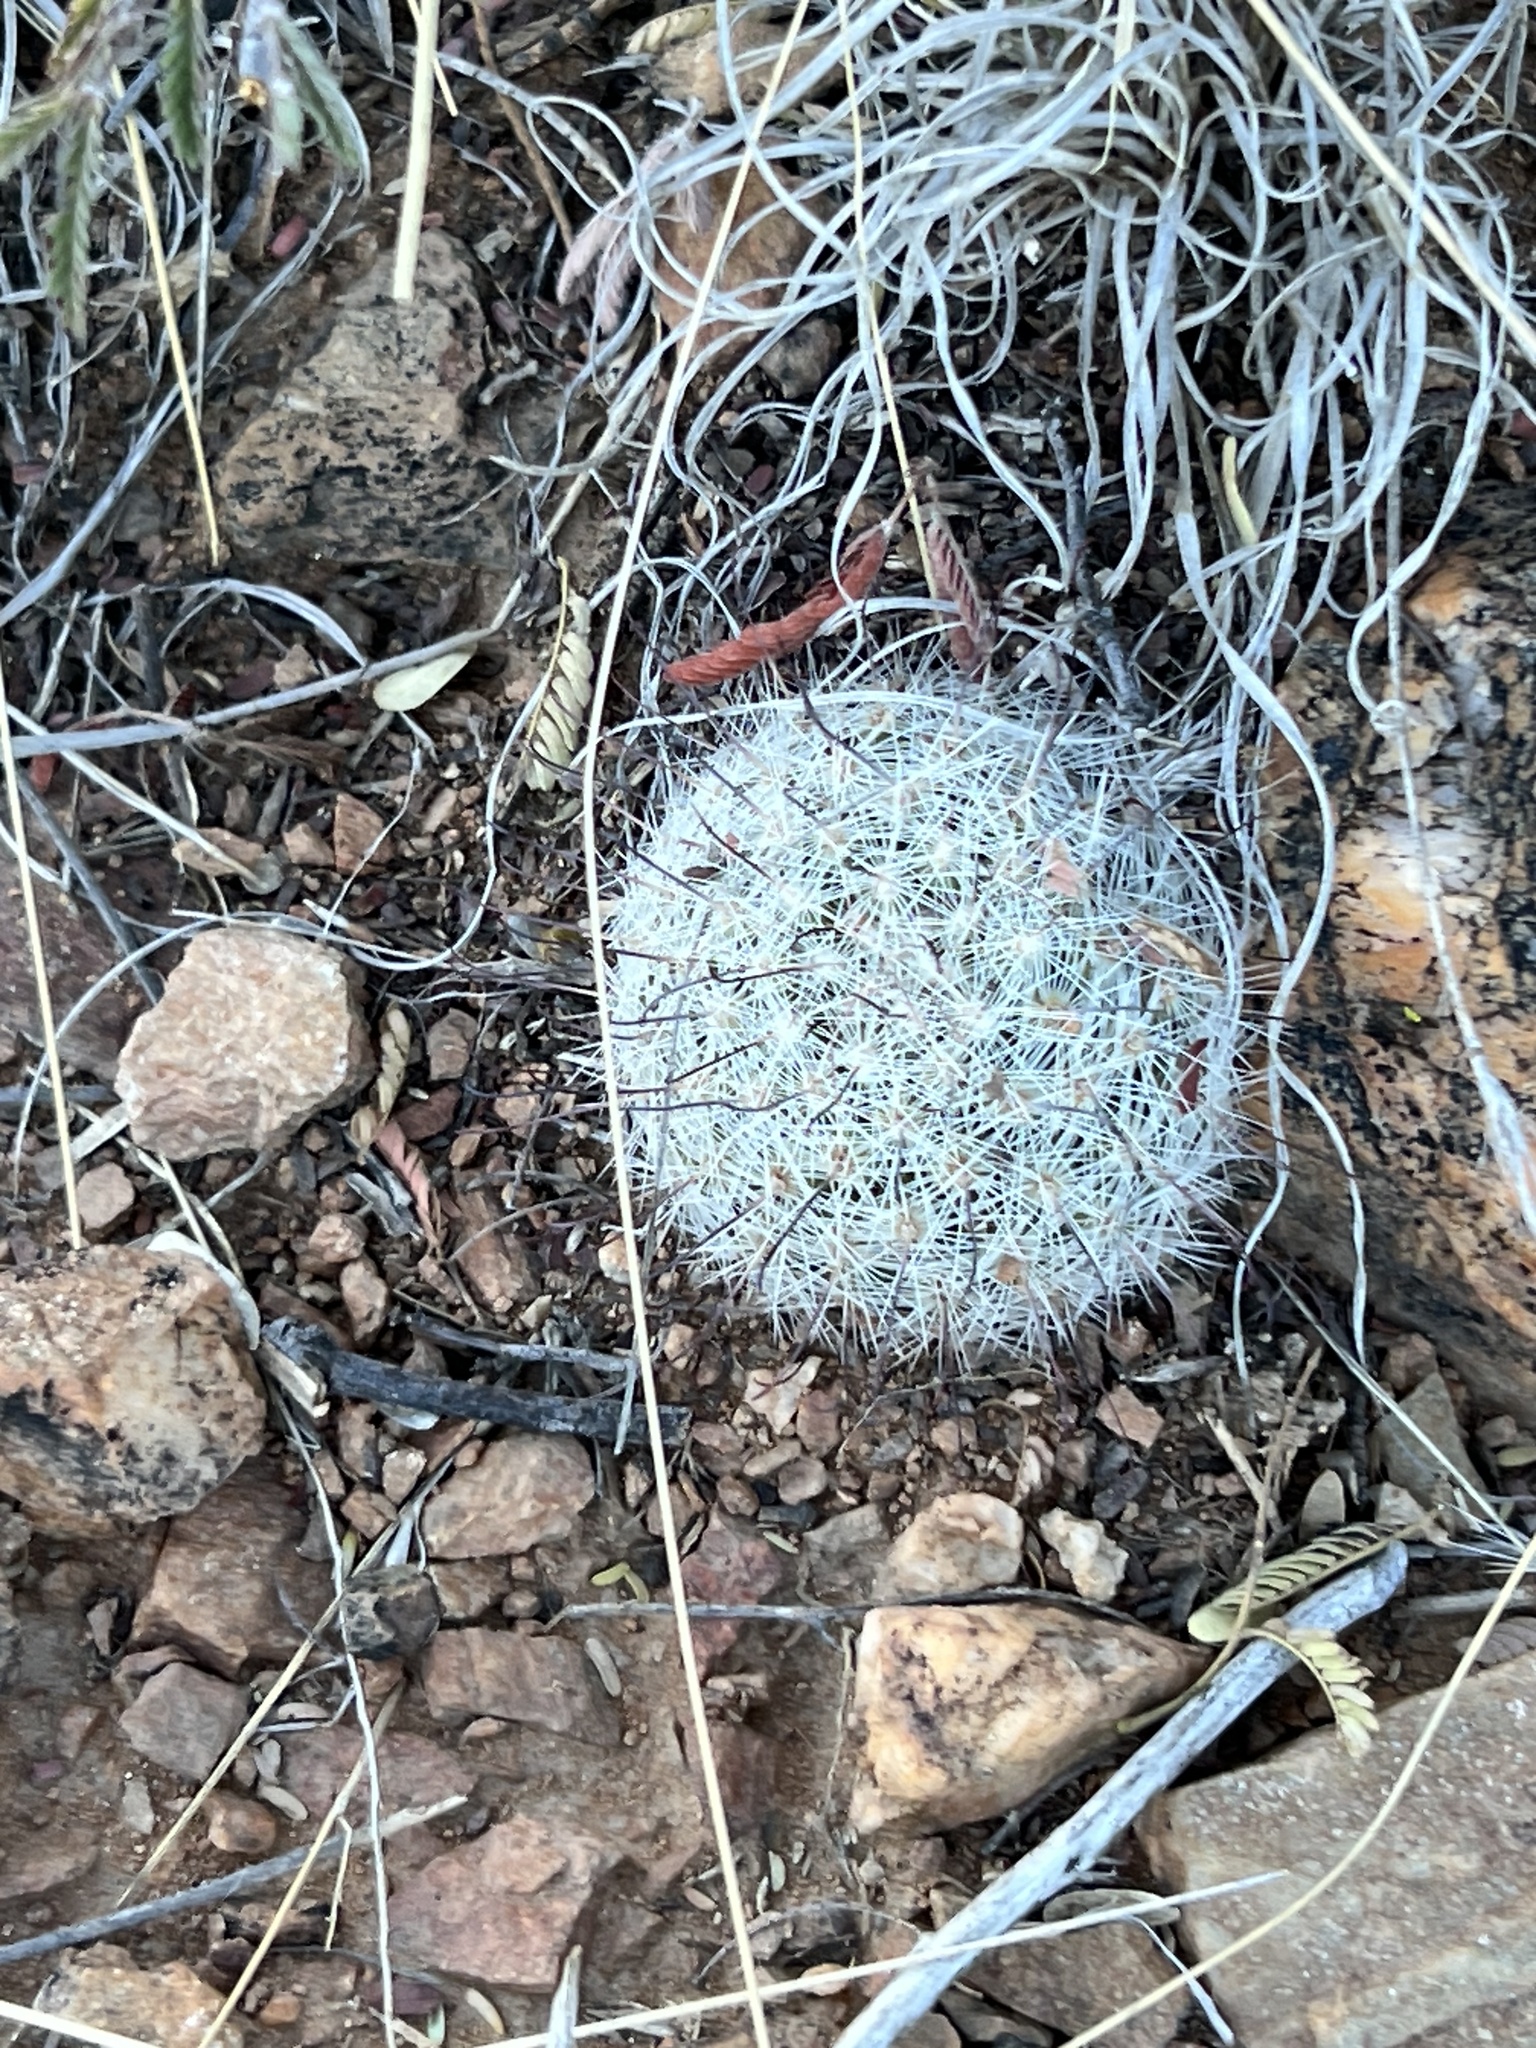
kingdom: Plantae
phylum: Tracheophyta
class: Magnoliopsida
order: Caryophyllales
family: Cactaceae
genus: Cochemiea
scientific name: Cochemiea grahamii
